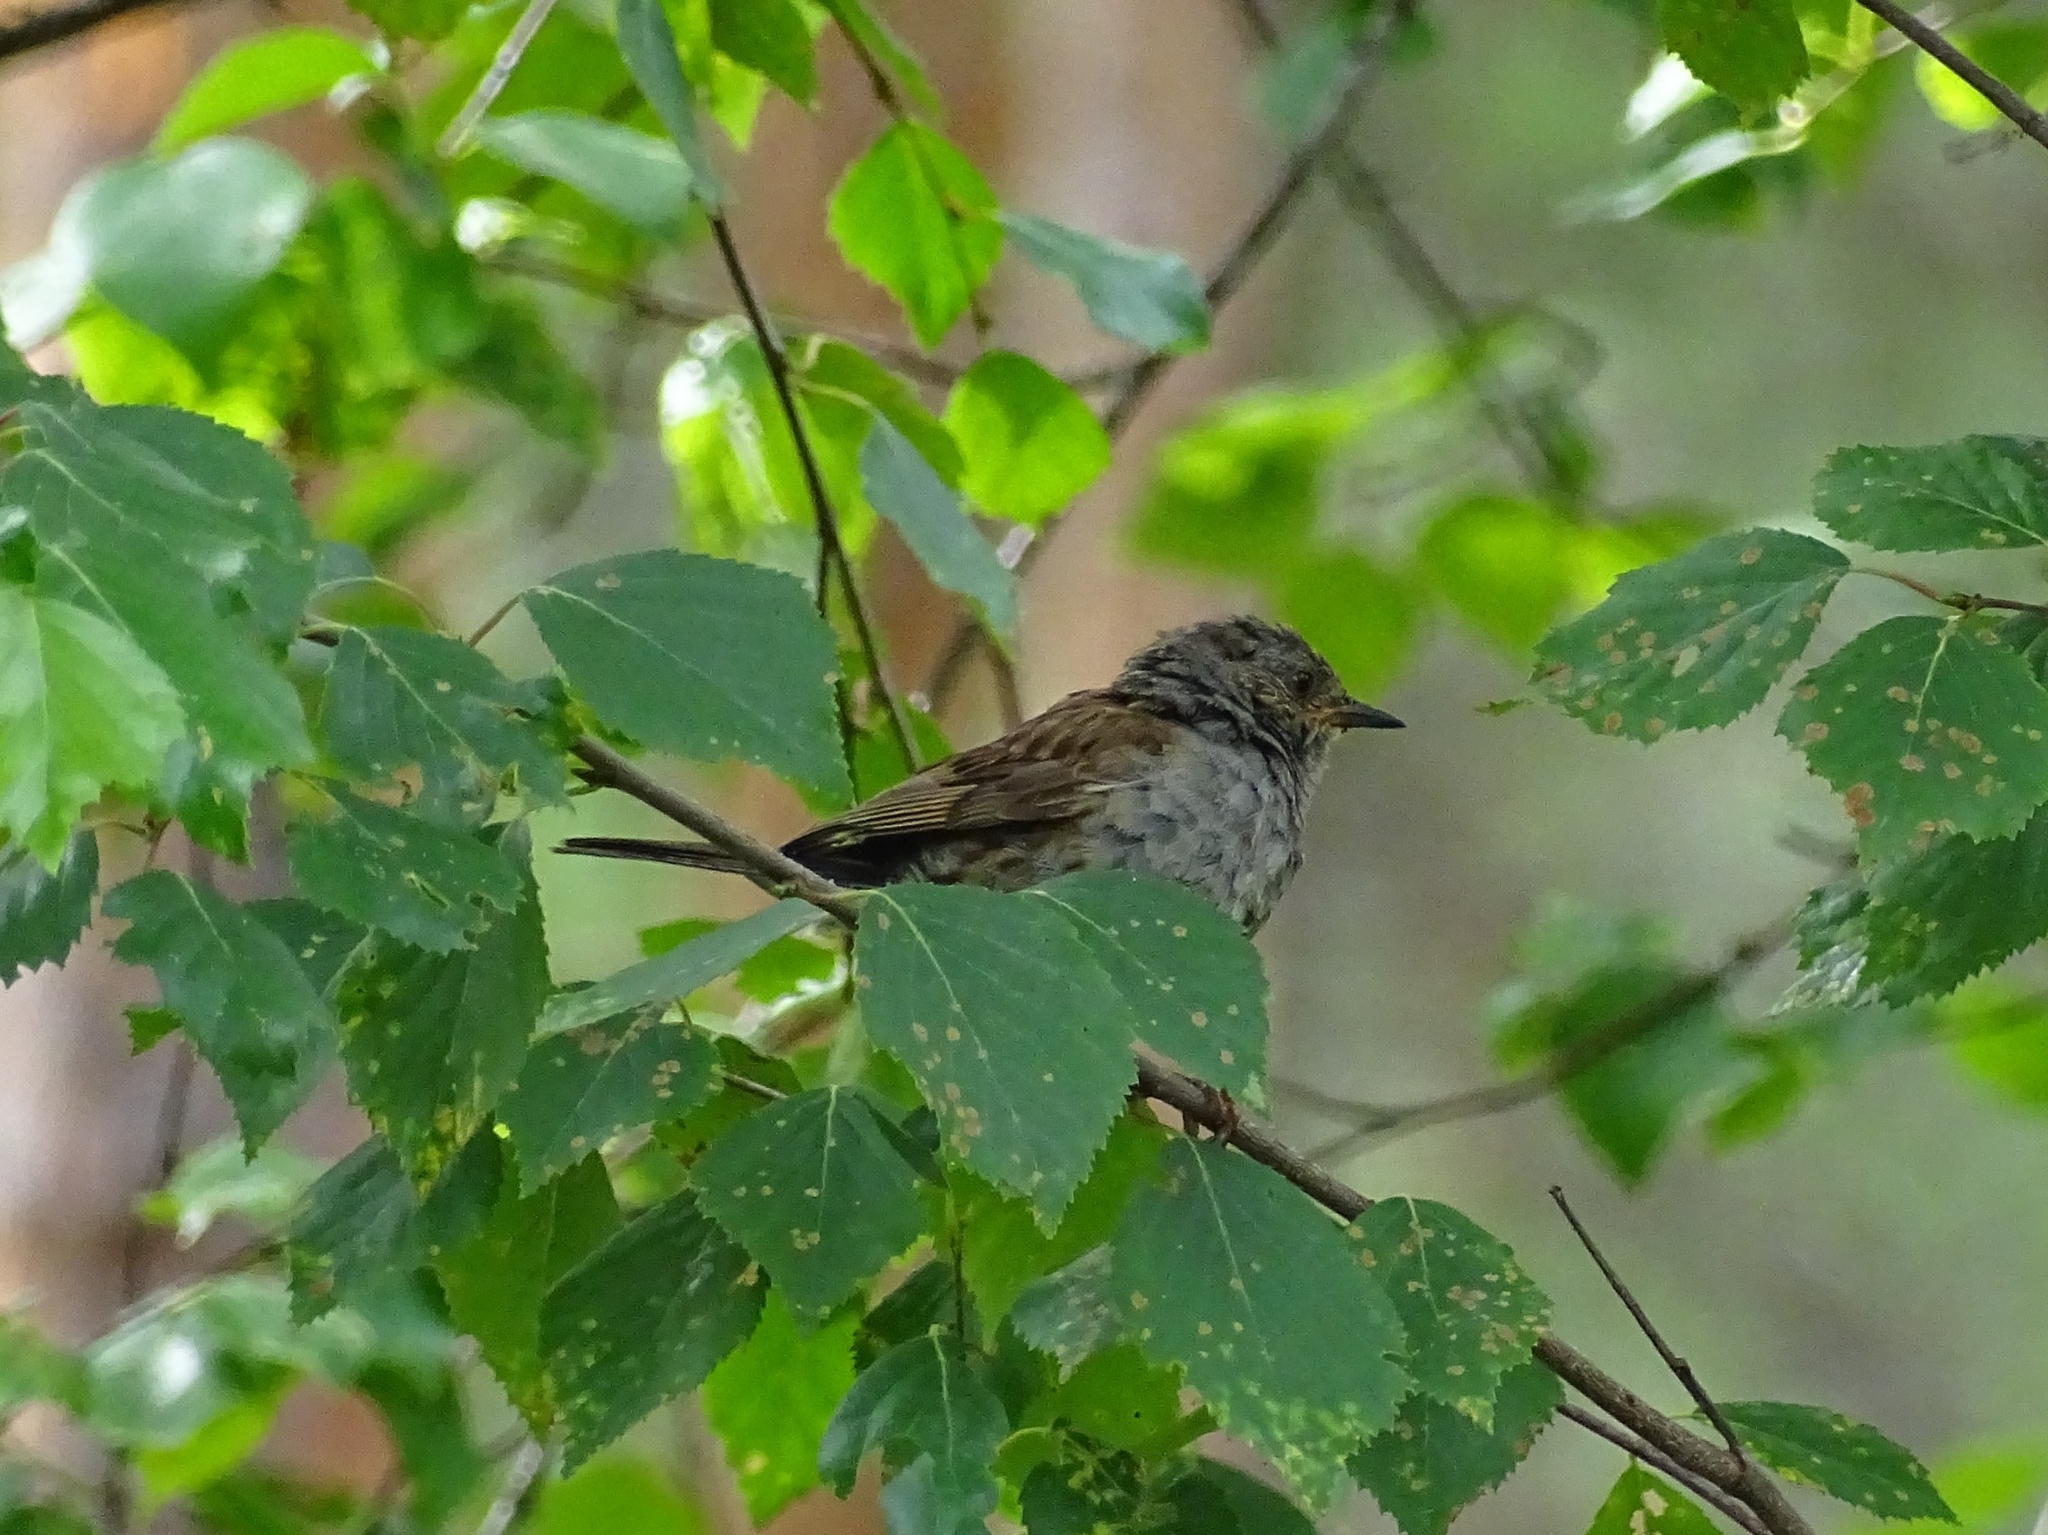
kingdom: Animalia
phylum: Chordata
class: Aves
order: Passeriformes
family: Prunellidae
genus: Prunella
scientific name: Prunella modularis
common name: Dunnock
